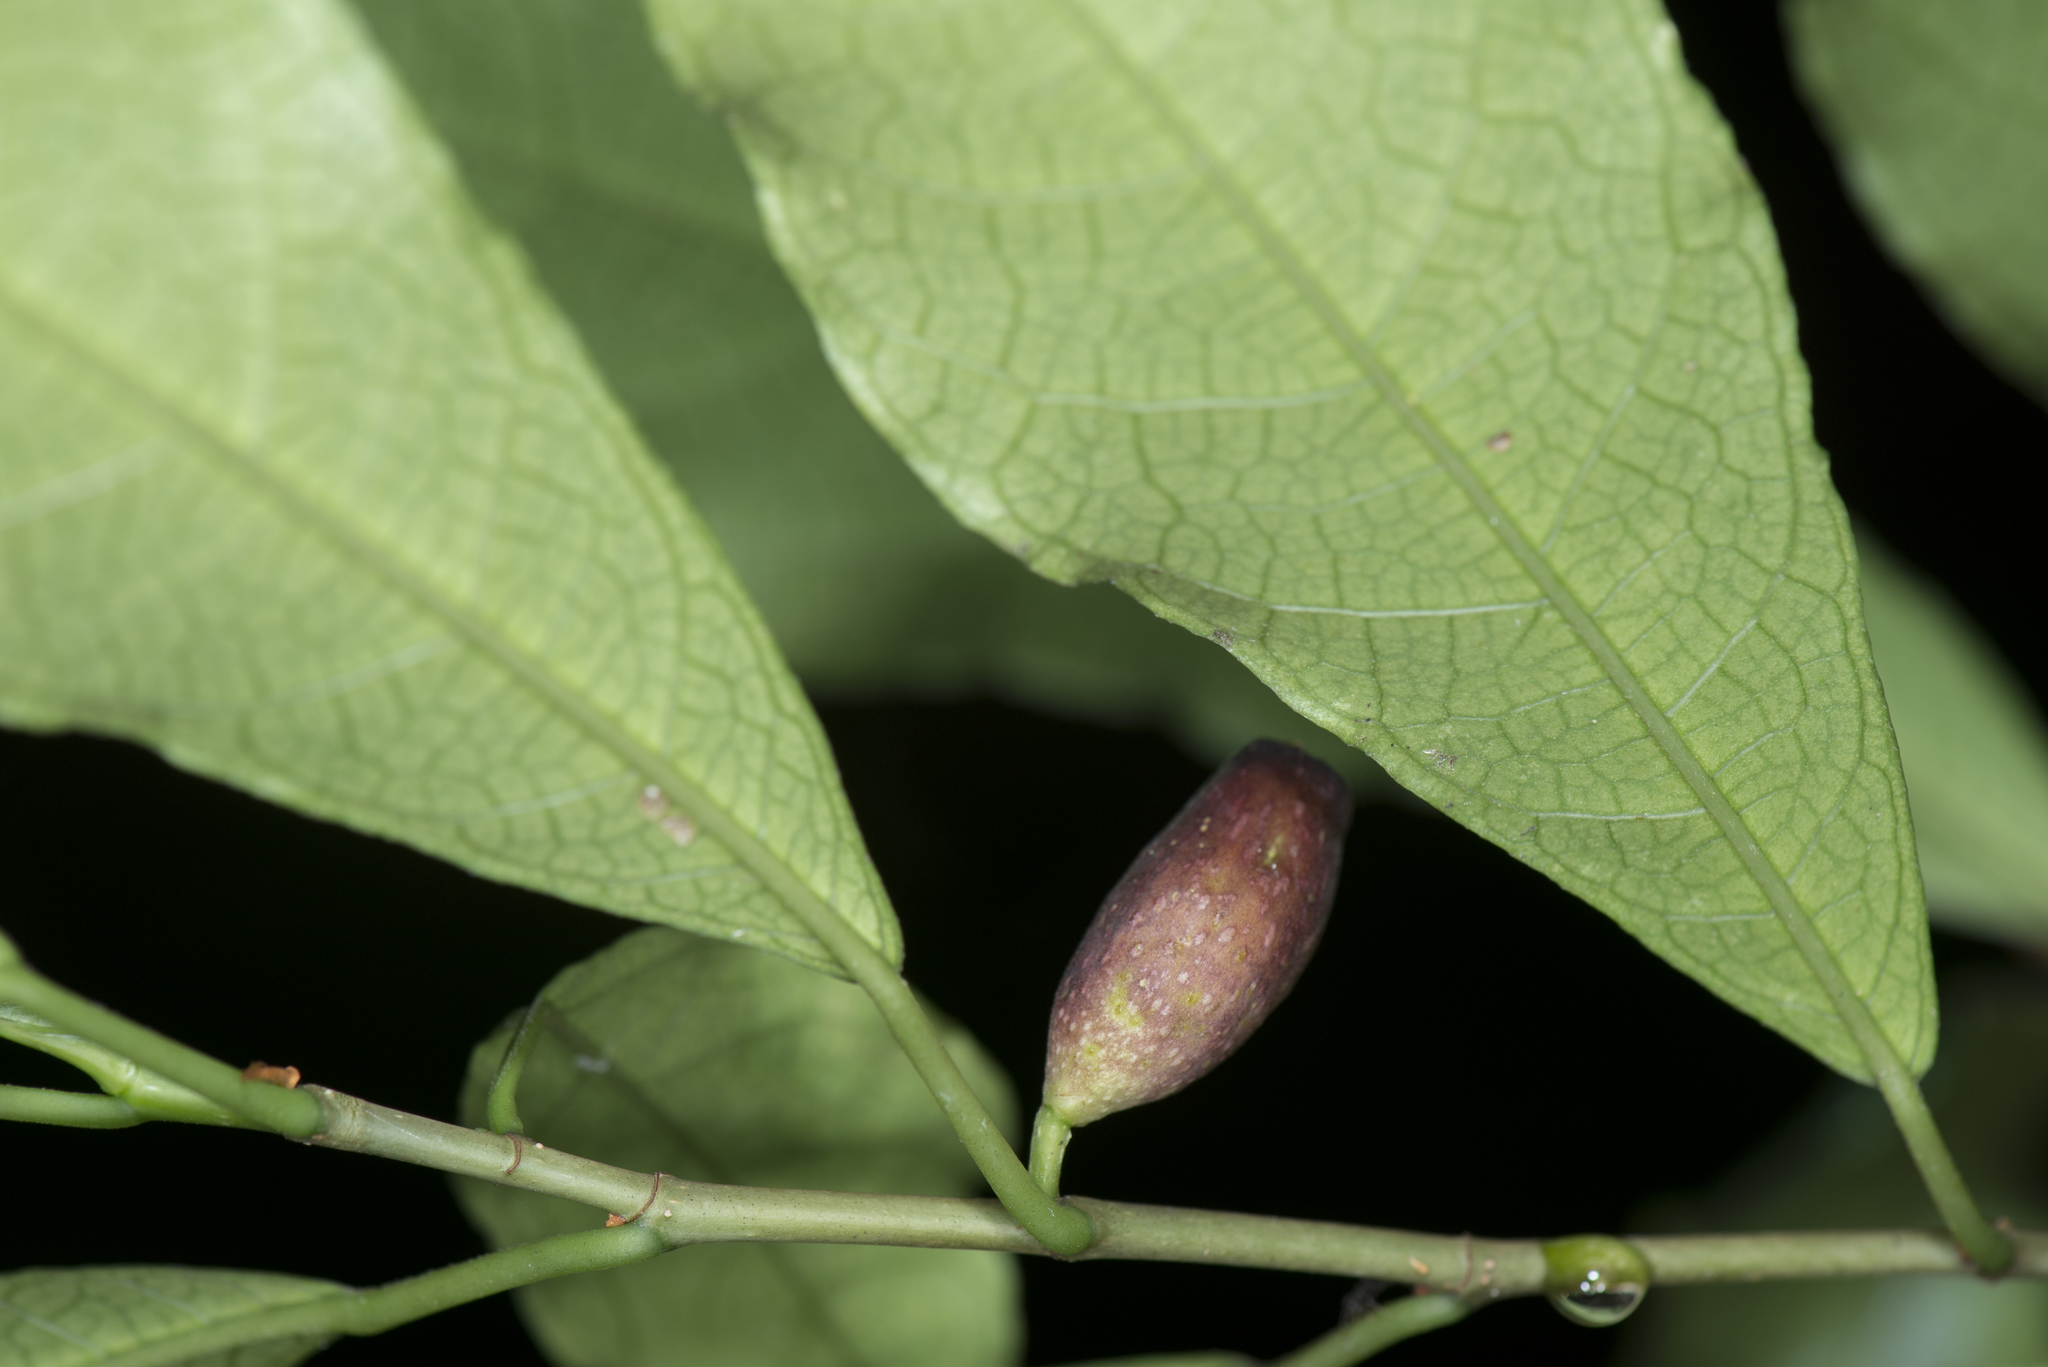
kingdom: Plantae
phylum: Tracheophyta
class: Magnoliopsida
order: Rosales
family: Moraceae
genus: Ficus
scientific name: Ficus formosana
